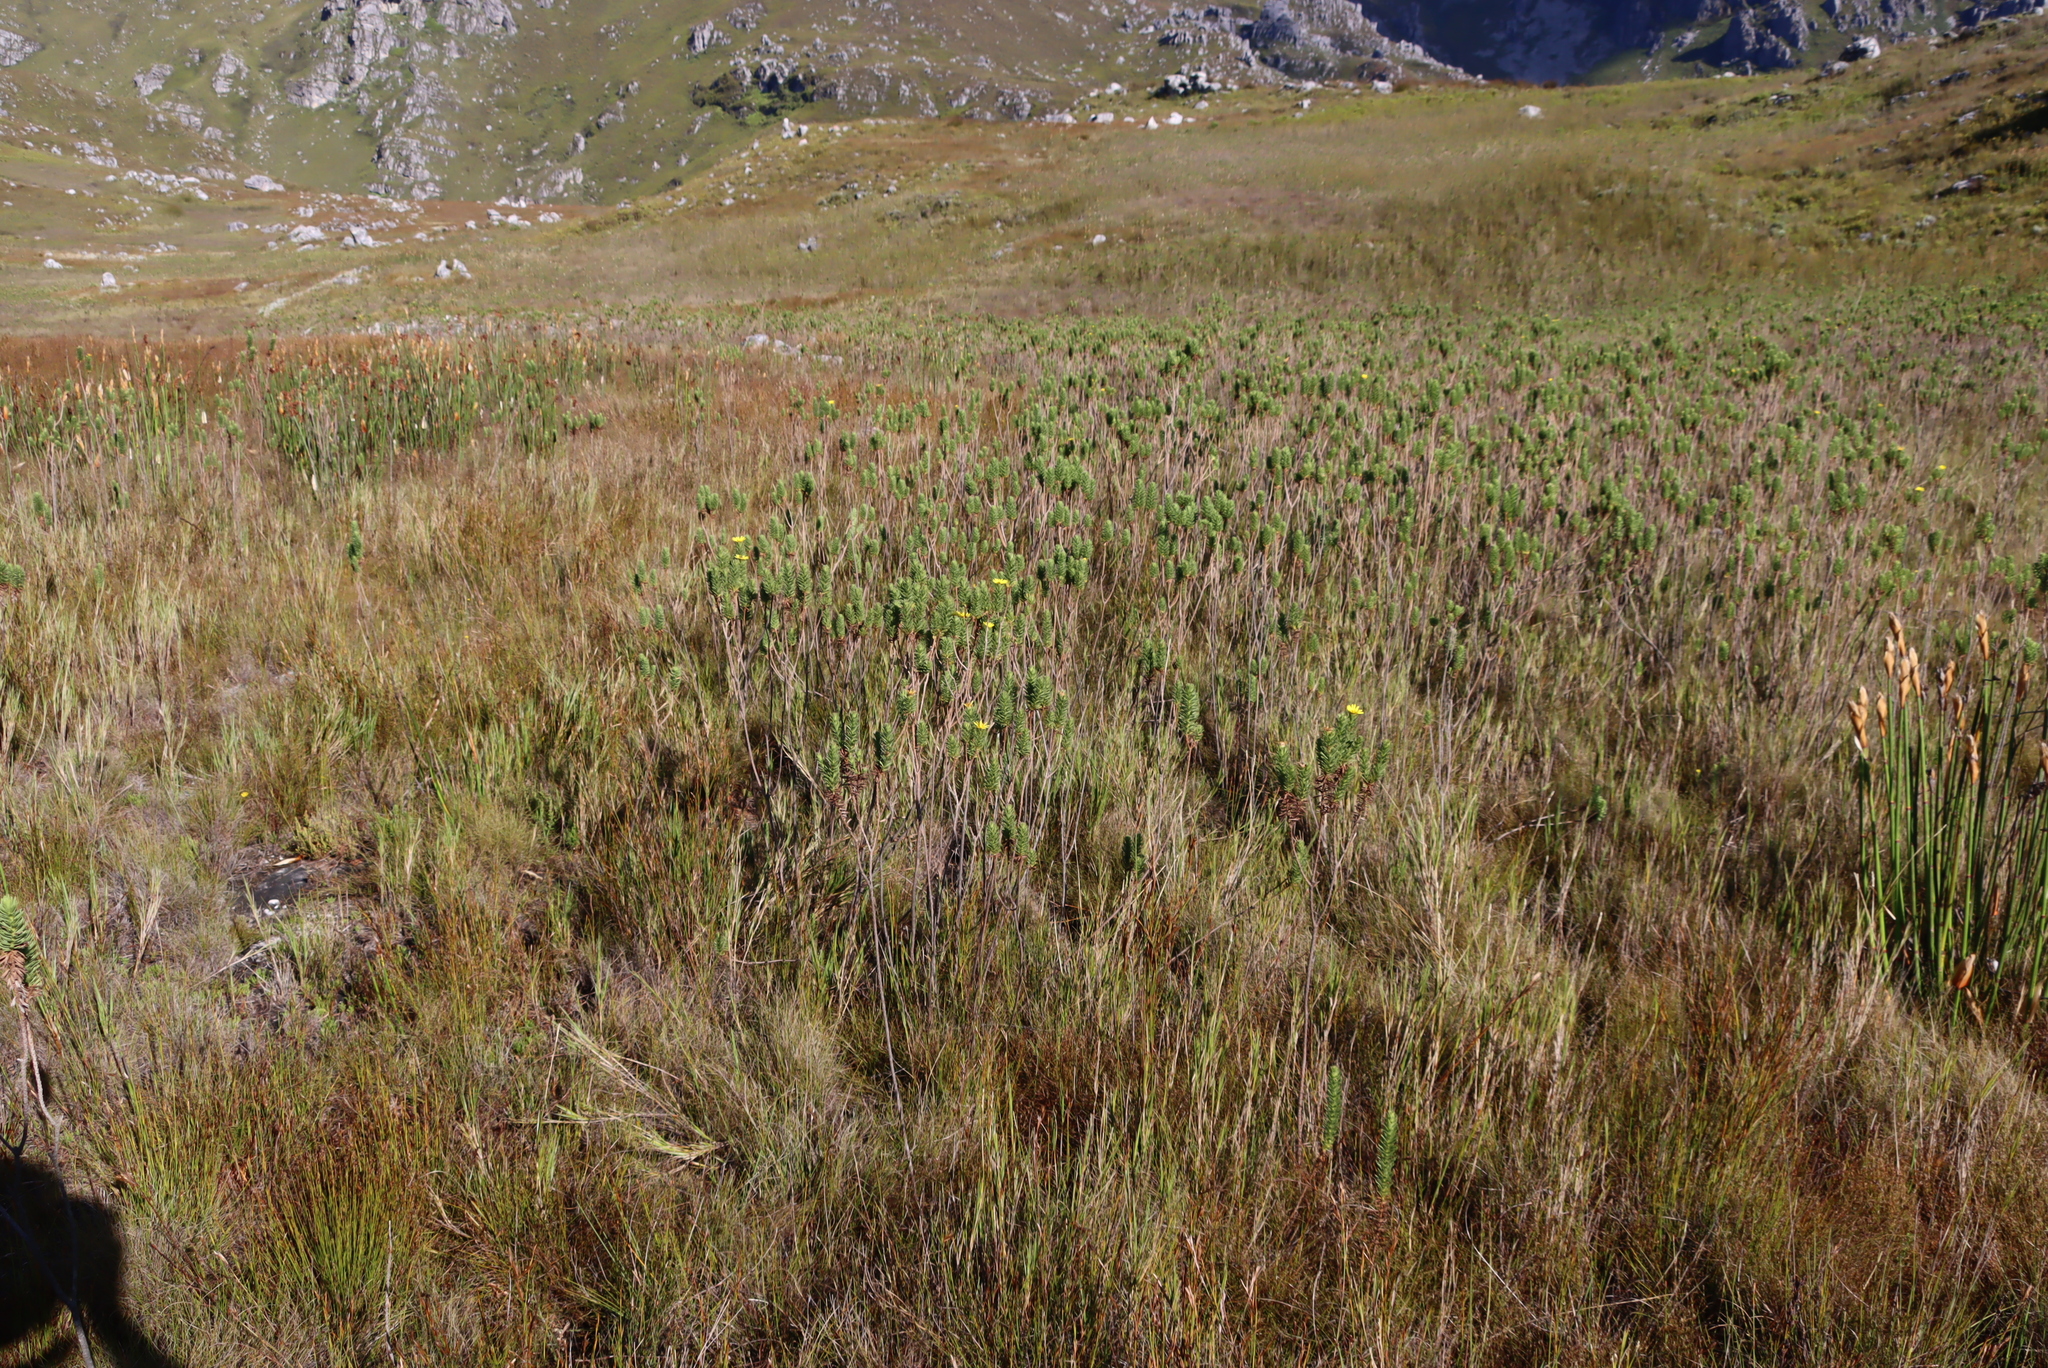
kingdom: Plantae
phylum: Tracheophyta
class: Magnoliopsida
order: Asterales
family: Asteraceae
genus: Ursinia
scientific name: Ursinia caledonica
